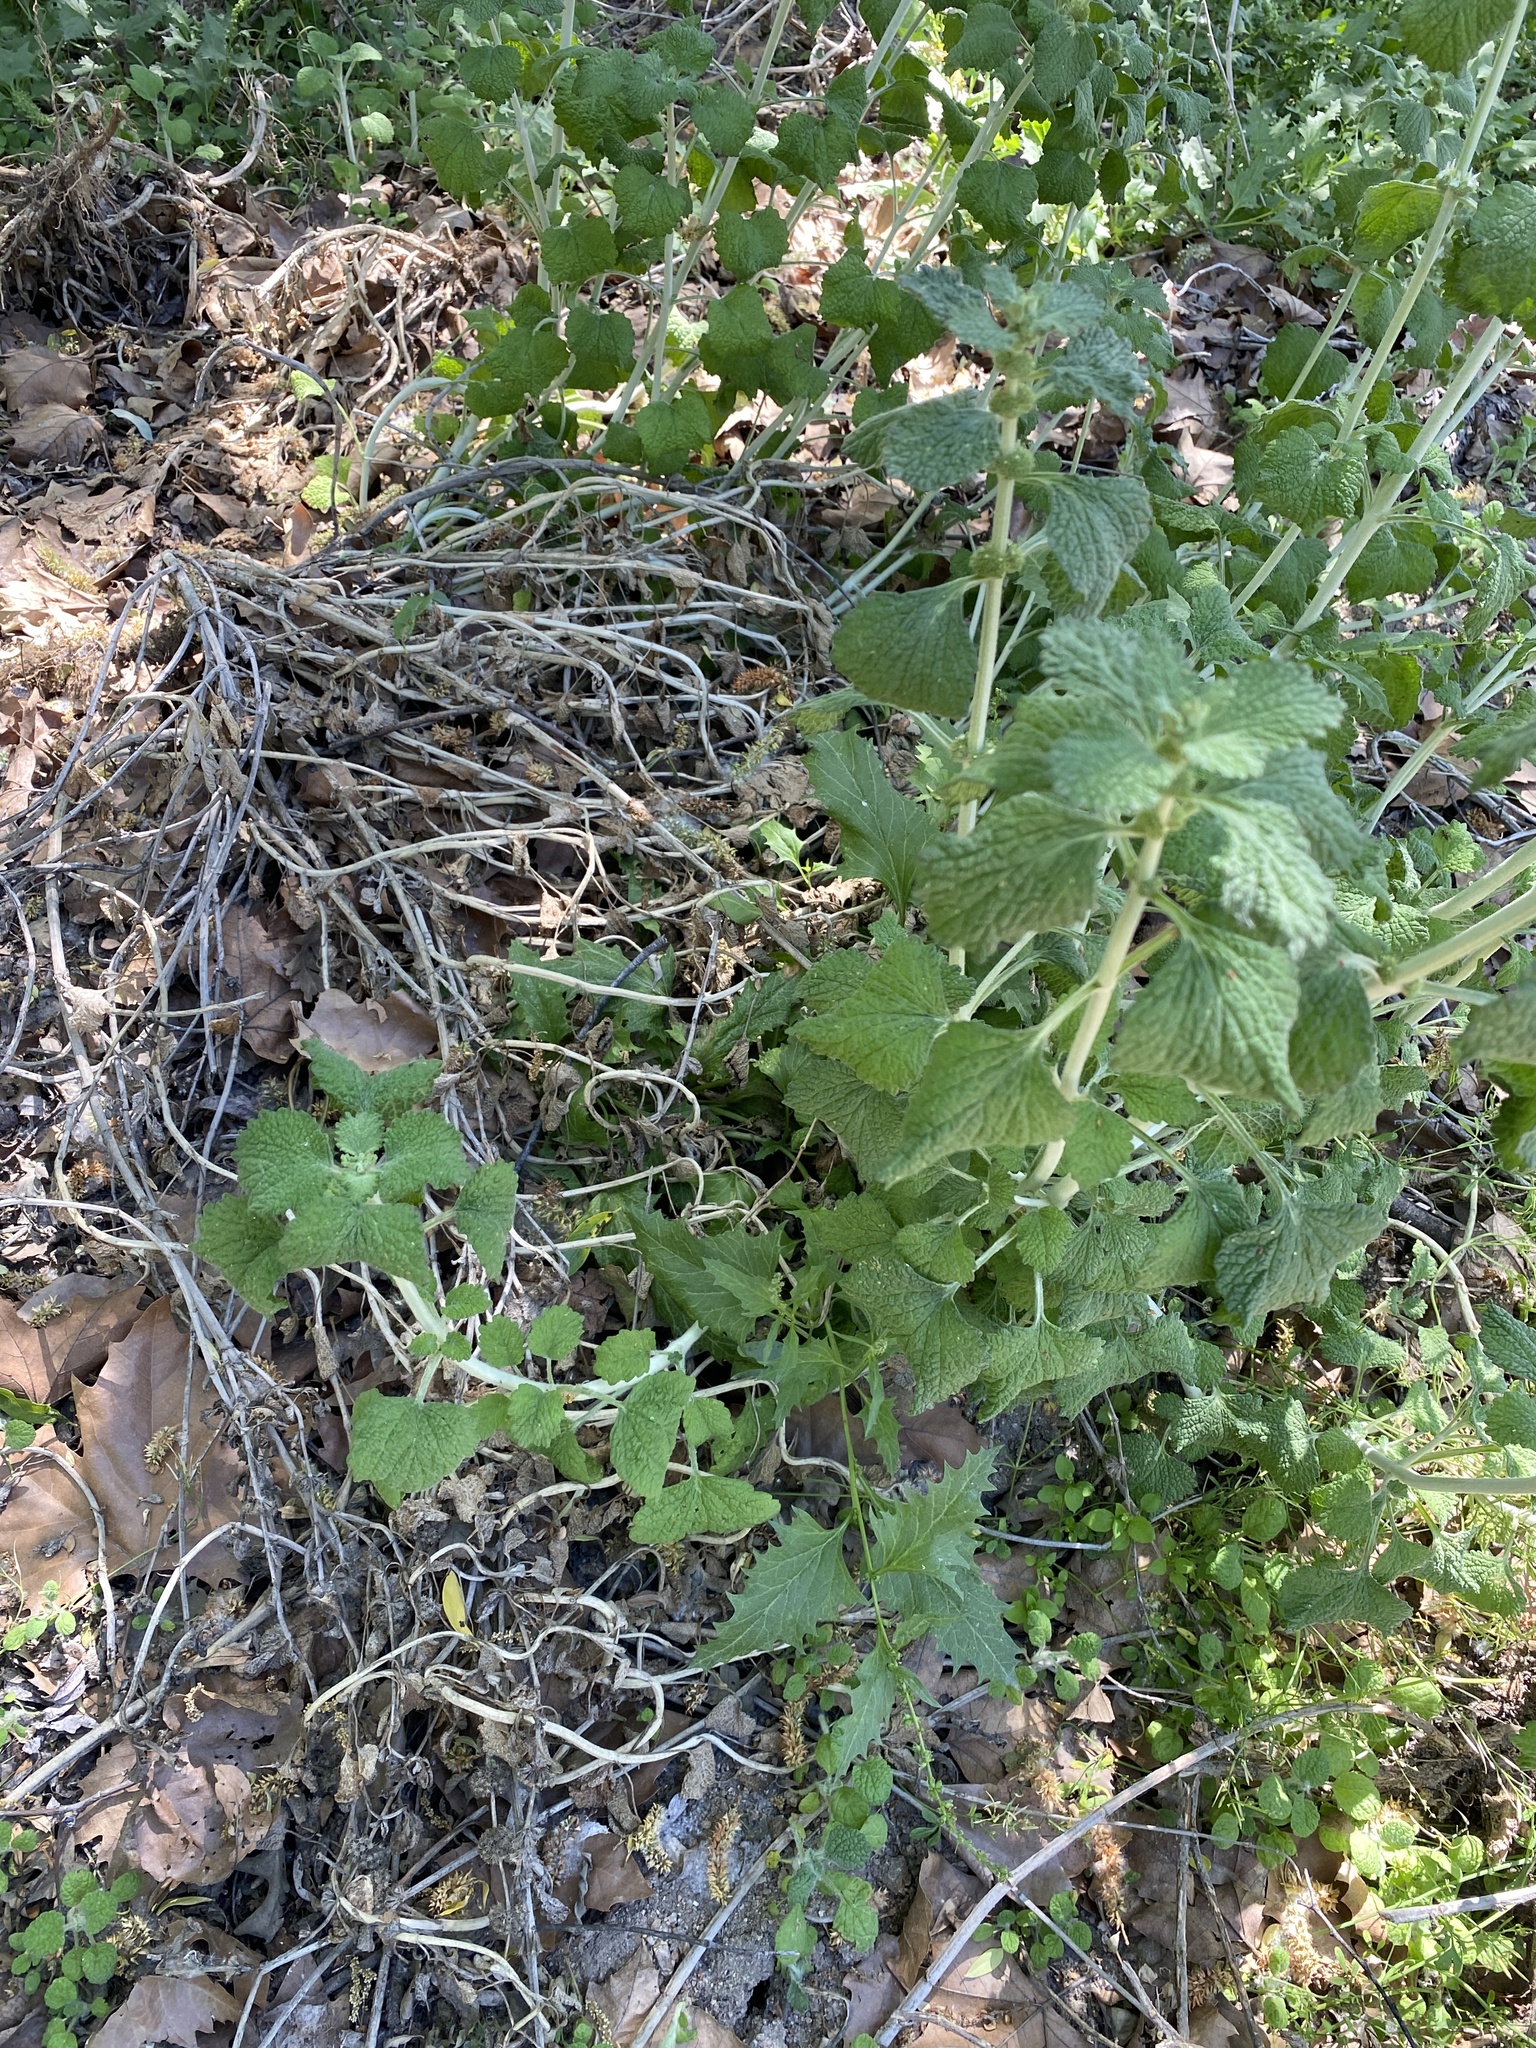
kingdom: Plantae
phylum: Tracheophyta
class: Magnoliopsida
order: Lamiales
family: Lamiaceae
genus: Marrubium
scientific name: Marrubium vulgare
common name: Horehound
